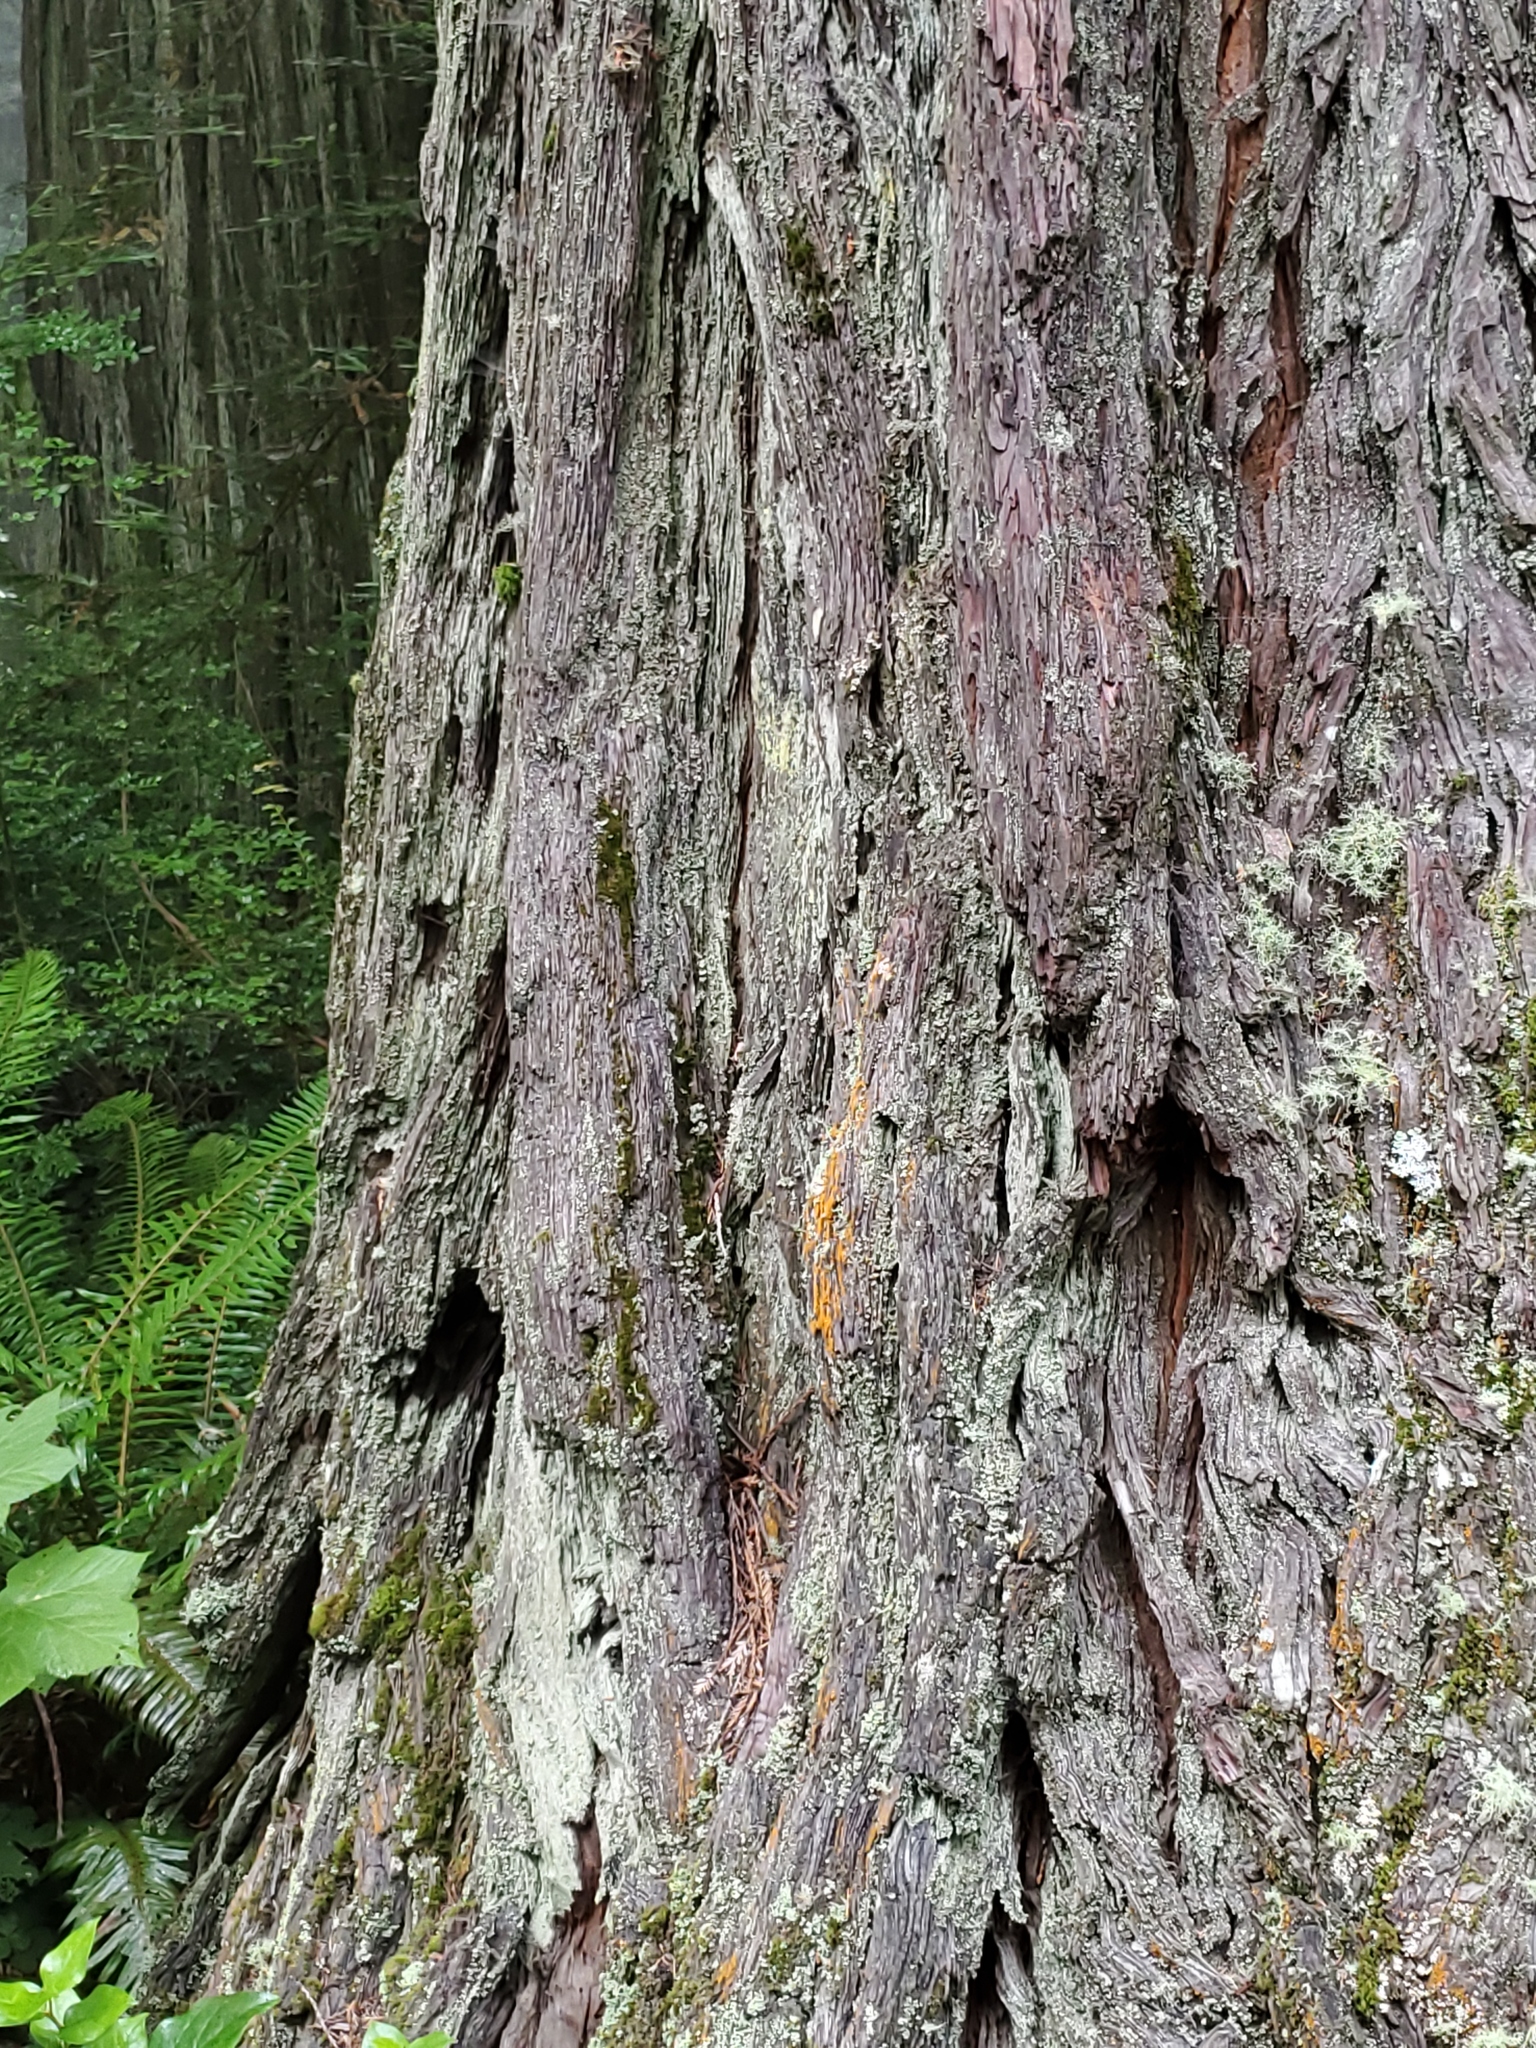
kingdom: Plantae
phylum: Tracheophyta
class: Pinopsida
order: Pinales
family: Cupressaceae
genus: Sequoia
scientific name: Sequoia sempervirens
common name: Coast redwood
